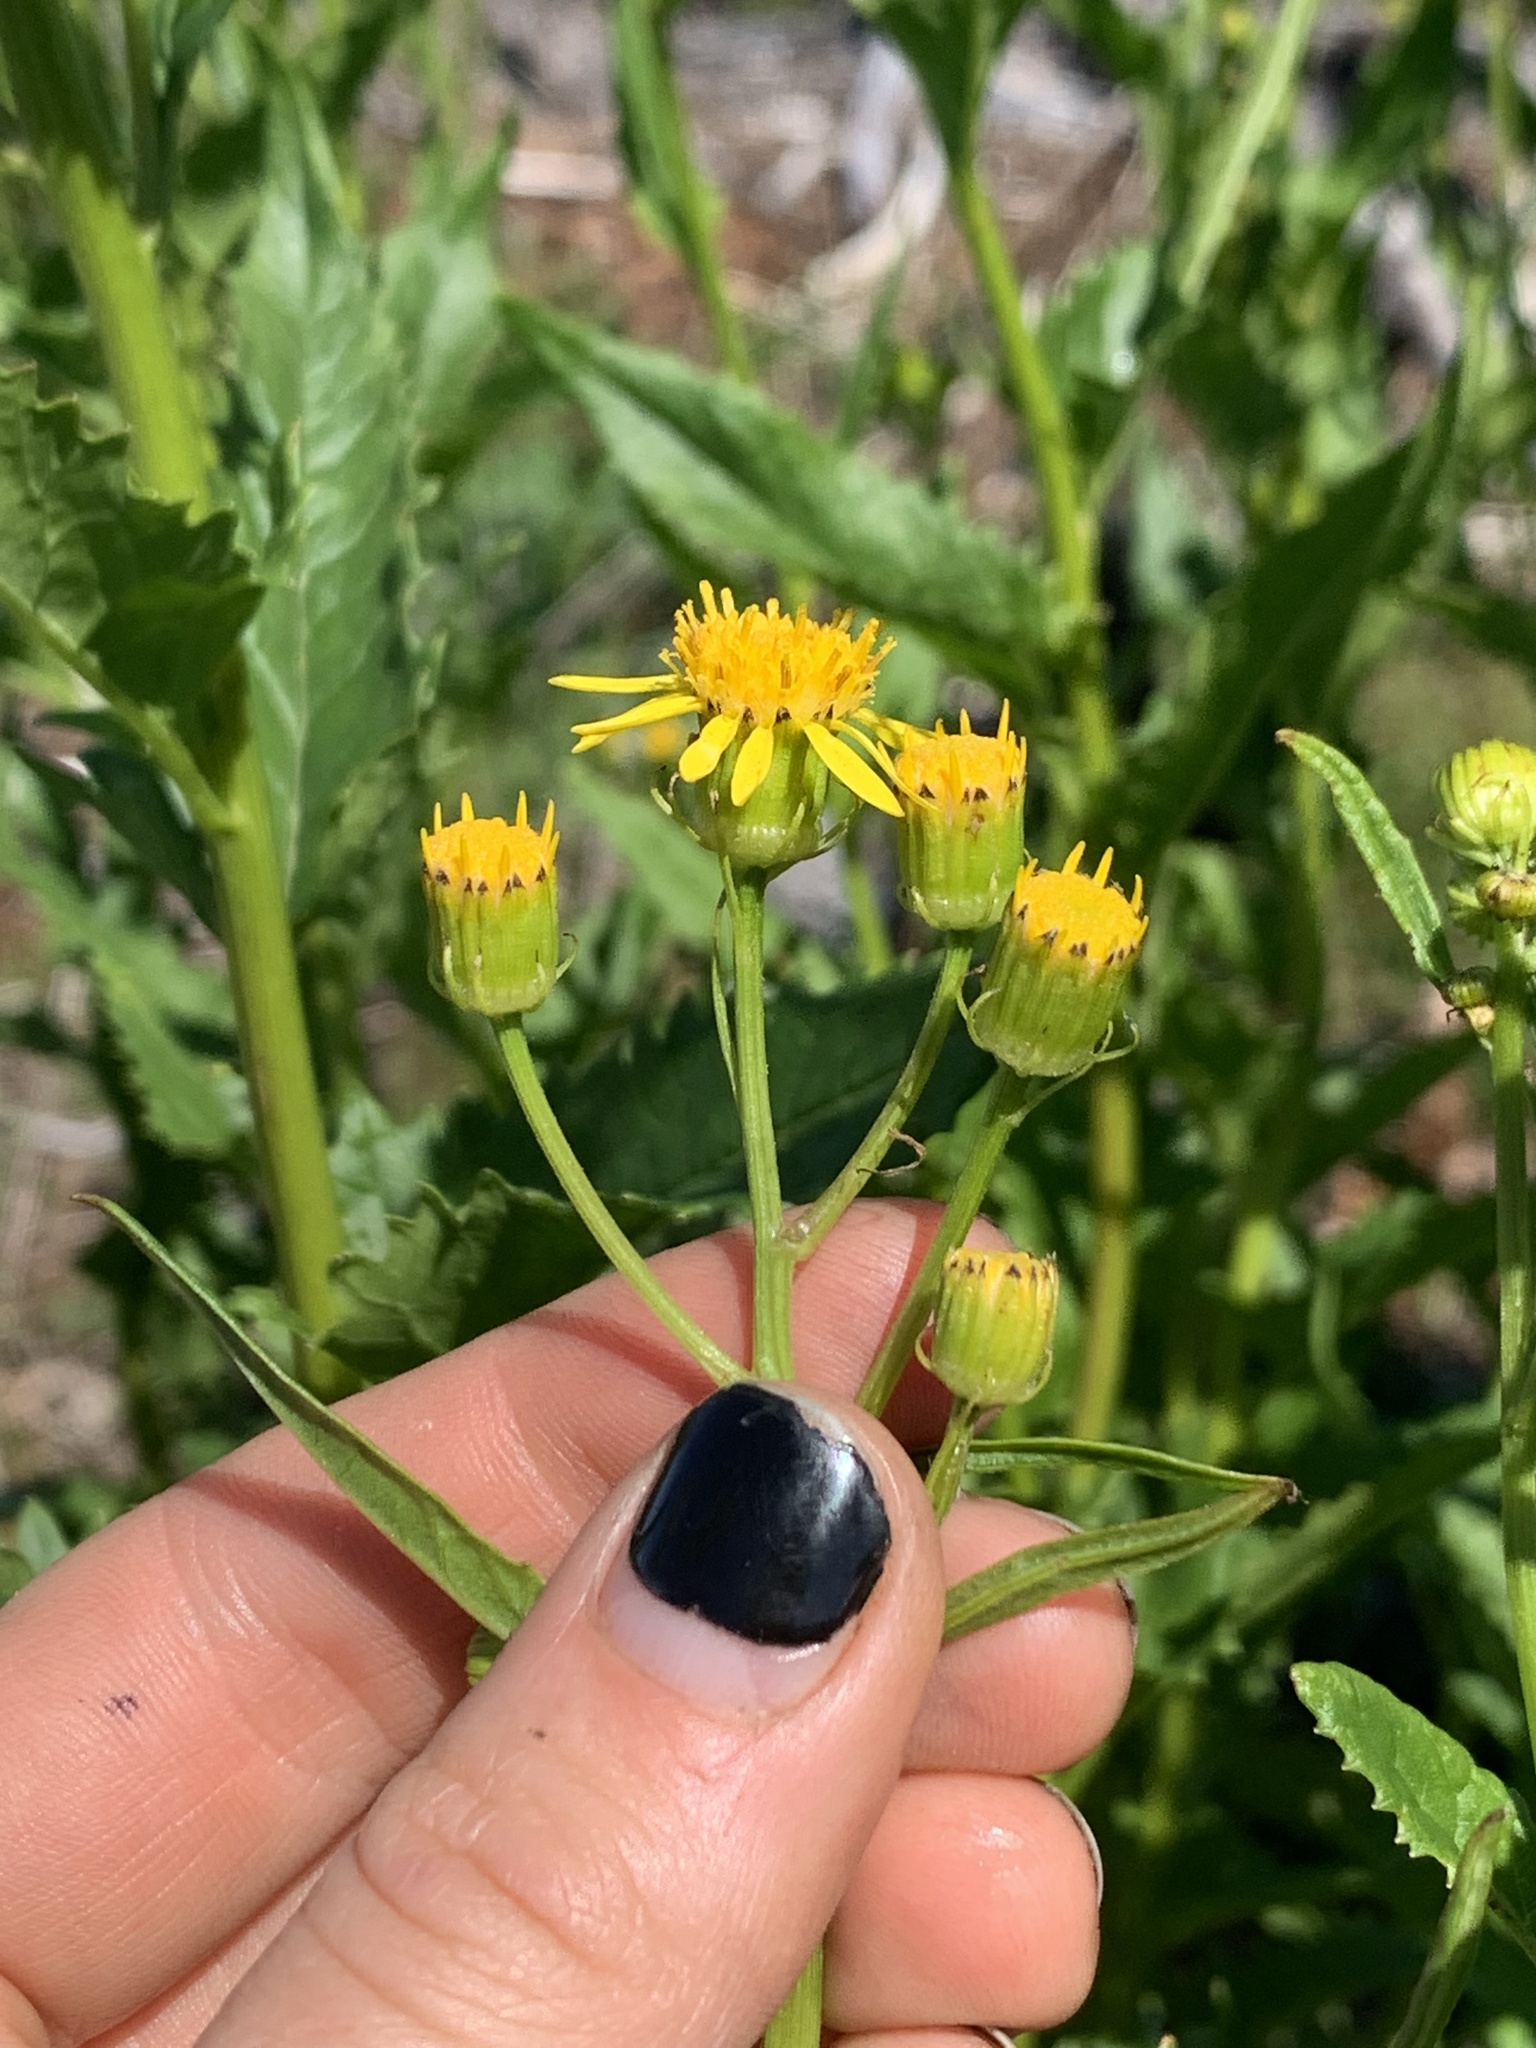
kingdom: Plantae
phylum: Tracheophyta
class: Magnoliopsida
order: Asterales
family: Asteraceae
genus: Senecio
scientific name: Senecio triangularis
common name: Arrowleaf butterweed
